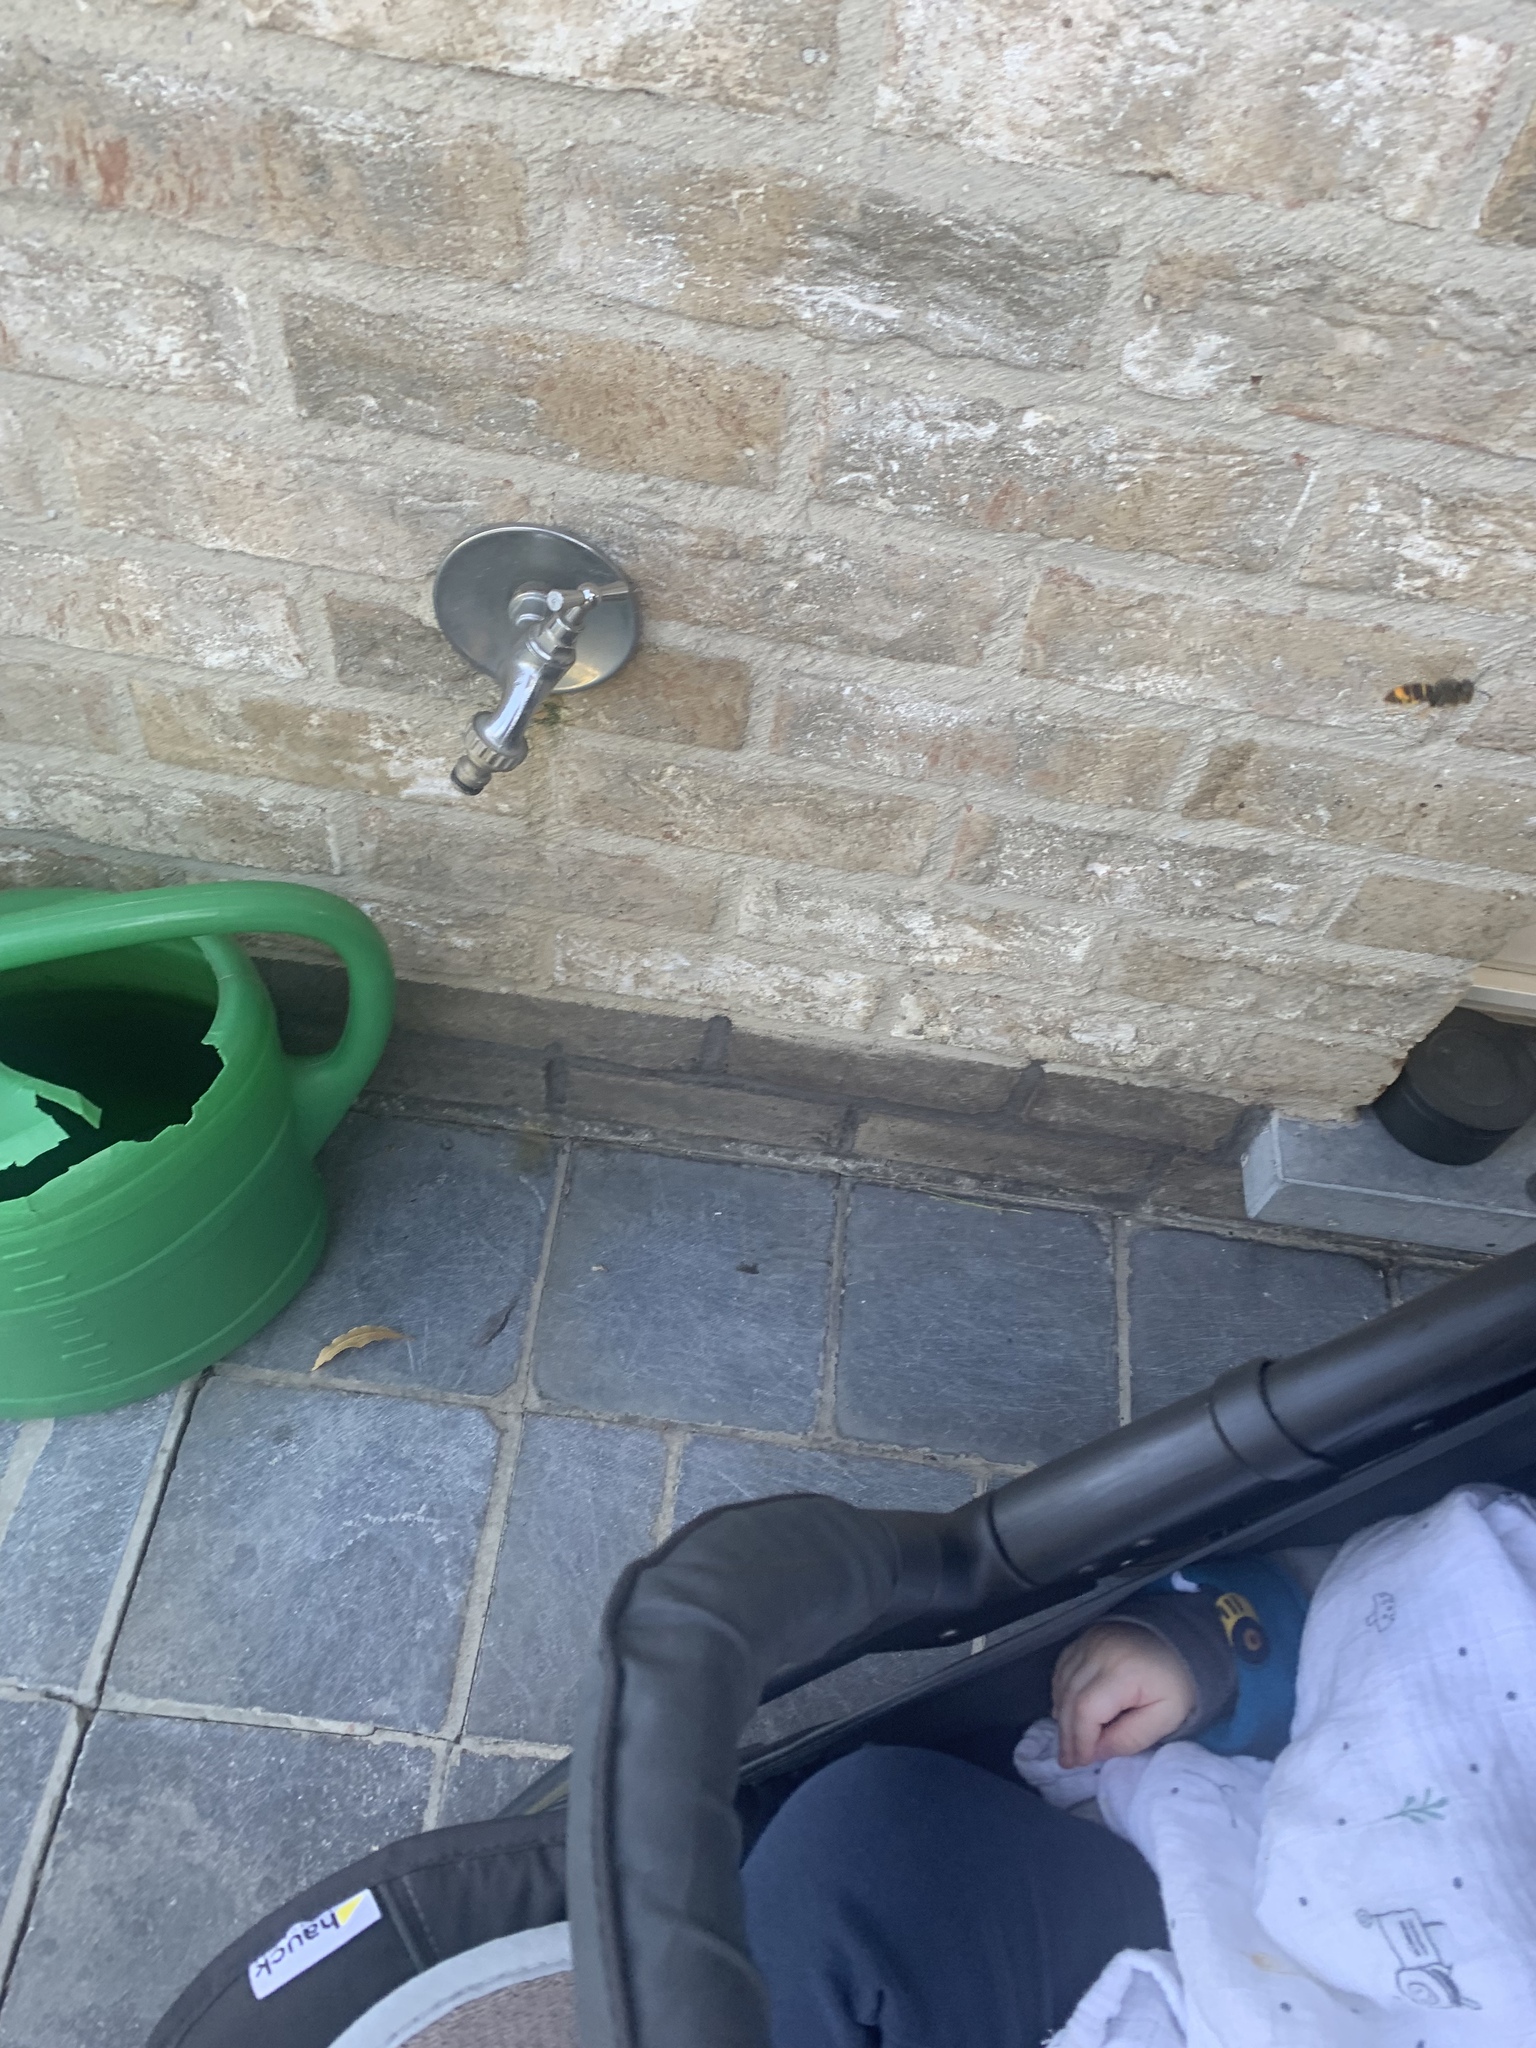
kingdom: Animalia
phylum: Arthropoda
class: Insecta
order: Hymenoptera
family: Vespidae
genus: Vespa
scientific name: Vespa velutina
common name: Asian hornet
